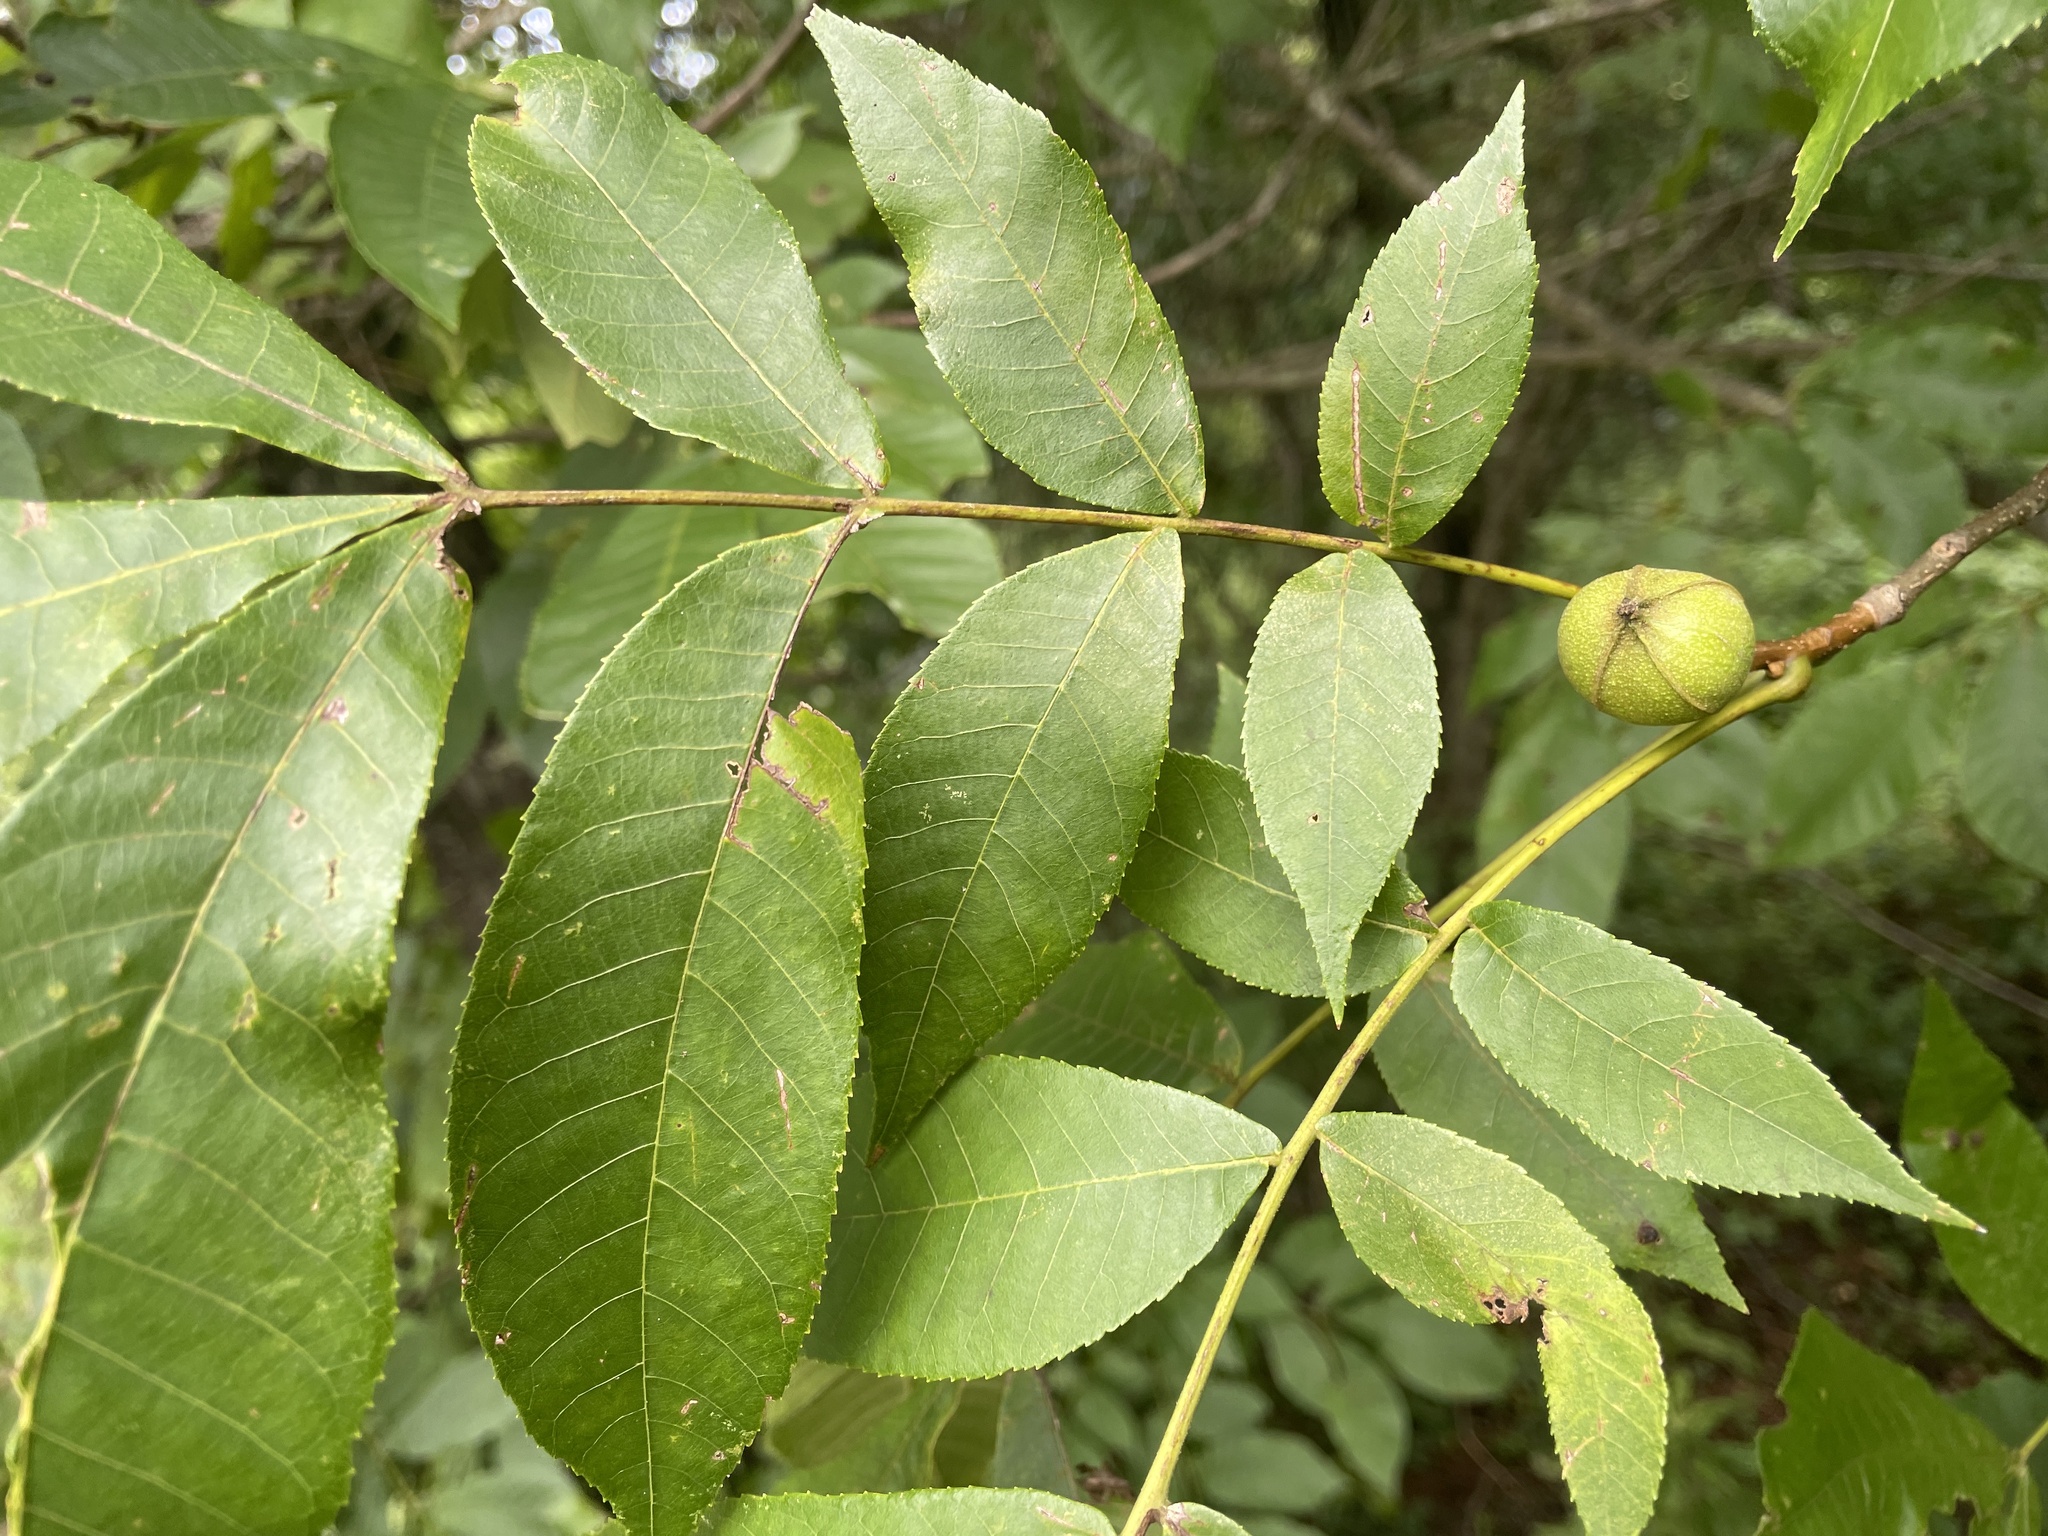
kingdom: Animalia
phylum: Arthropoda
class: Insecta
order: Hemiptera
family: Phylloxeridae
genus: Phylloxera
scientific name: Phylloxera caryae-semen
